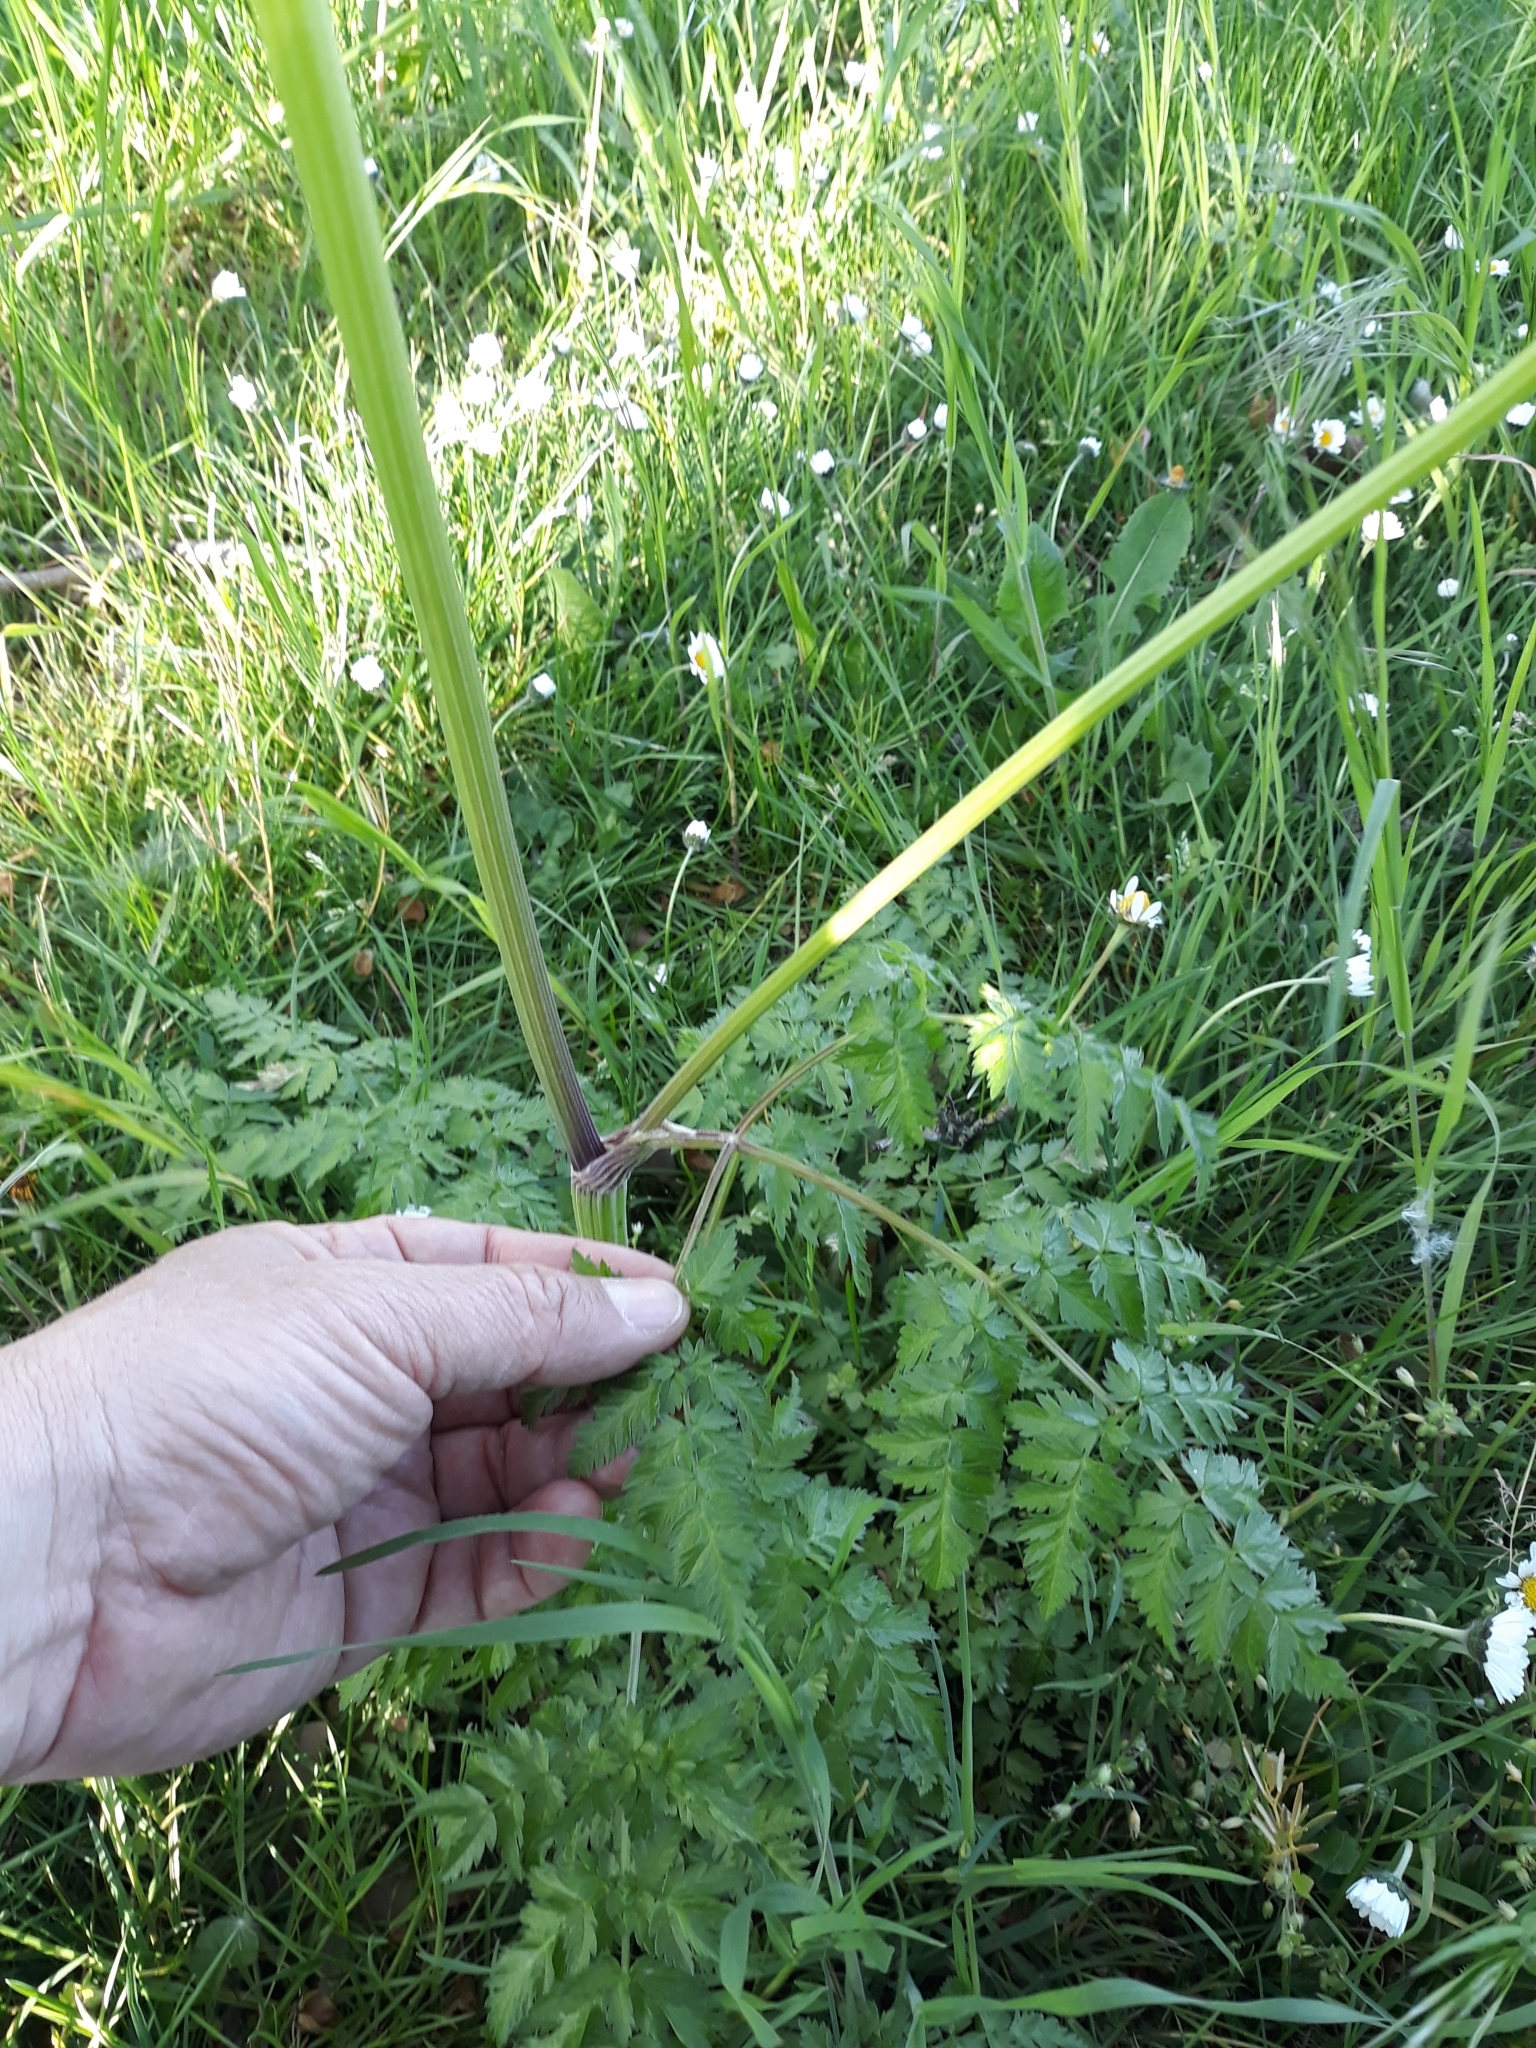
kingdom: Plantae
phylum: Tracheophyta
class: Magnoliopsida
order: Apiales
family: Apiaceae
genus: Anthriscus
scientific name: Anthriscus sylvestris
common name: Cow parsley
